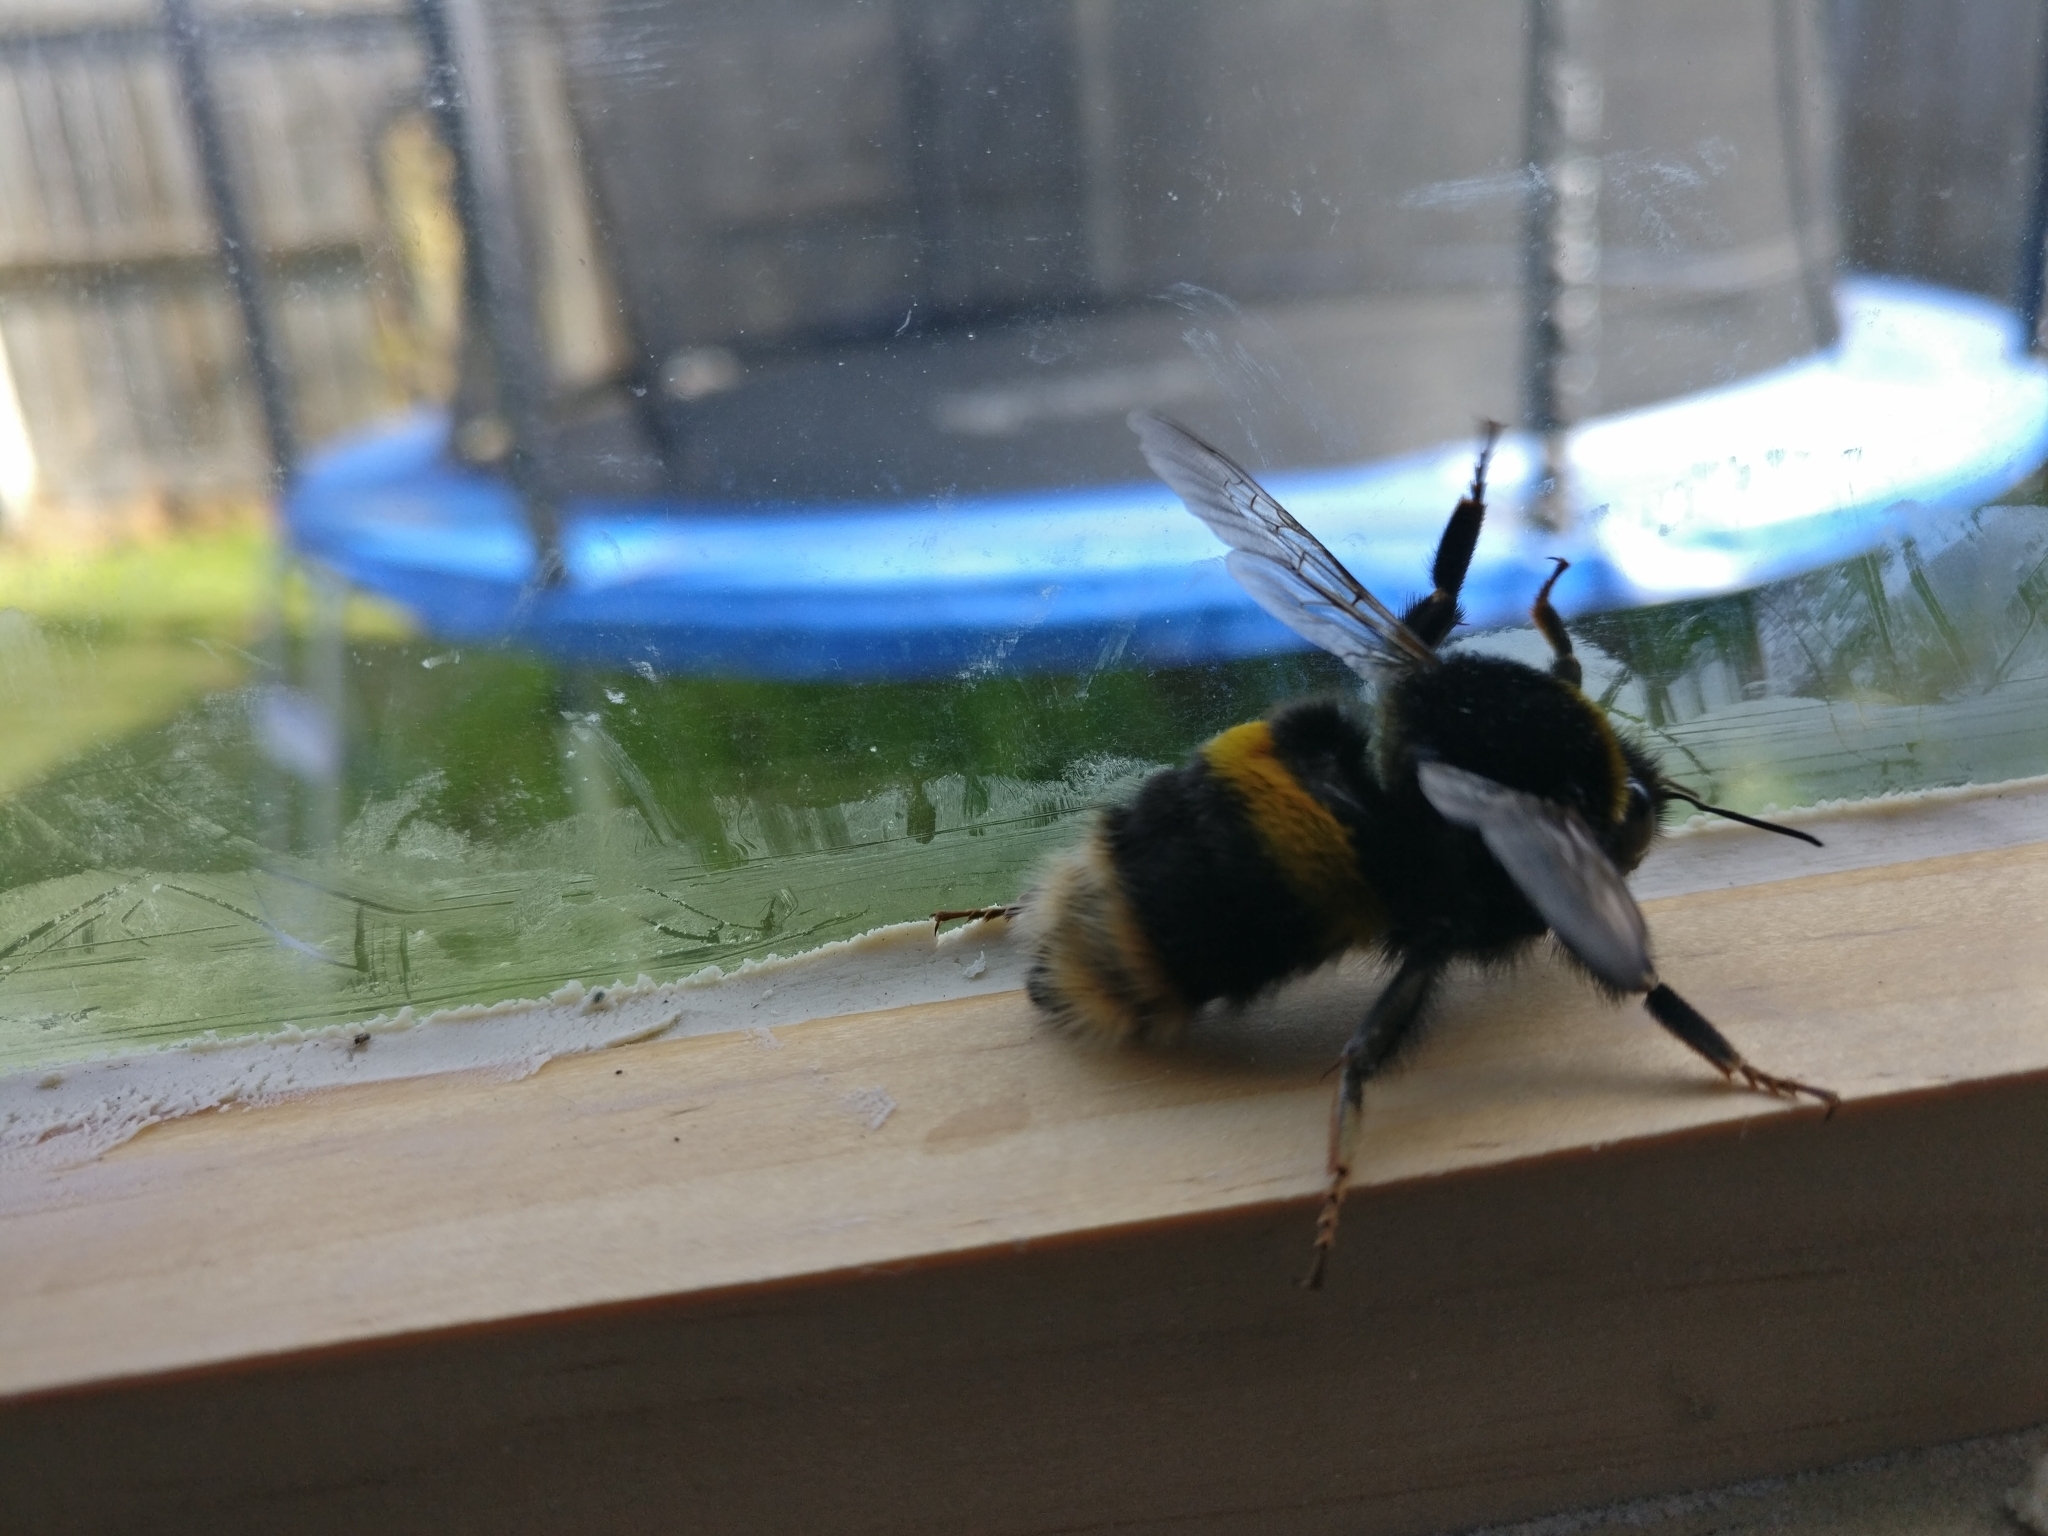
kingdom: Animalia
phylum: Arthropoda
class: Insecta
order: Hymenoptera
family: Apidae
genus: Bombus
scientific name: Bombus terrestris
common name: Buff-tailed bumblebee
